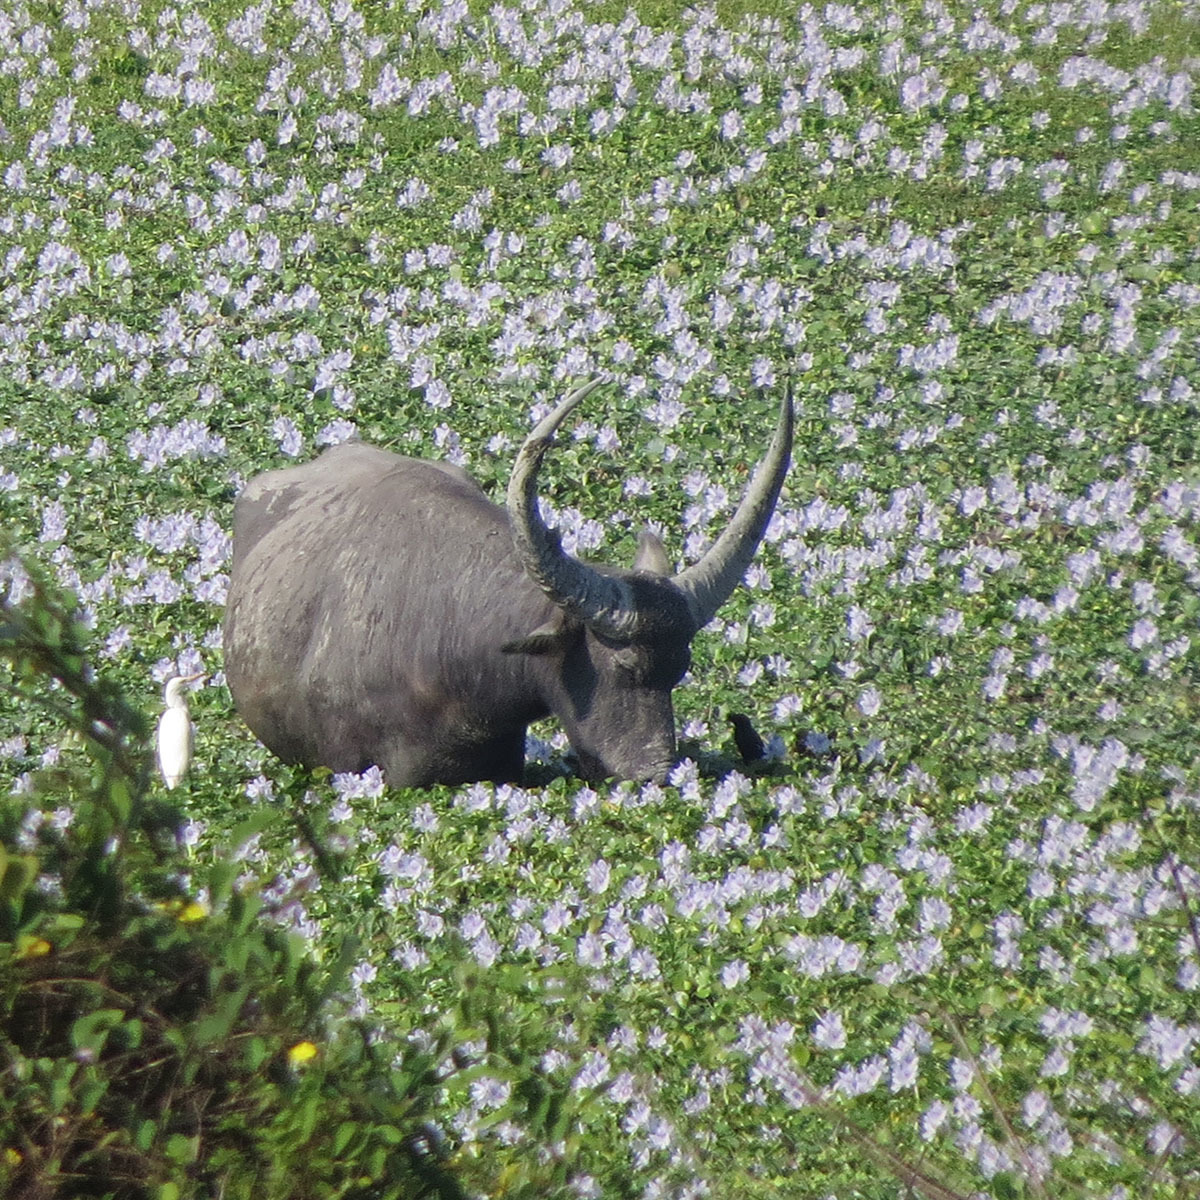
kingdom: Animalia
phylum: Chordata
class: Mammalia
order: Artiodactyla
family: Bovidae
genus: Bubalus
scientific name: Bubalus bubalis
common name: Water buffalo
